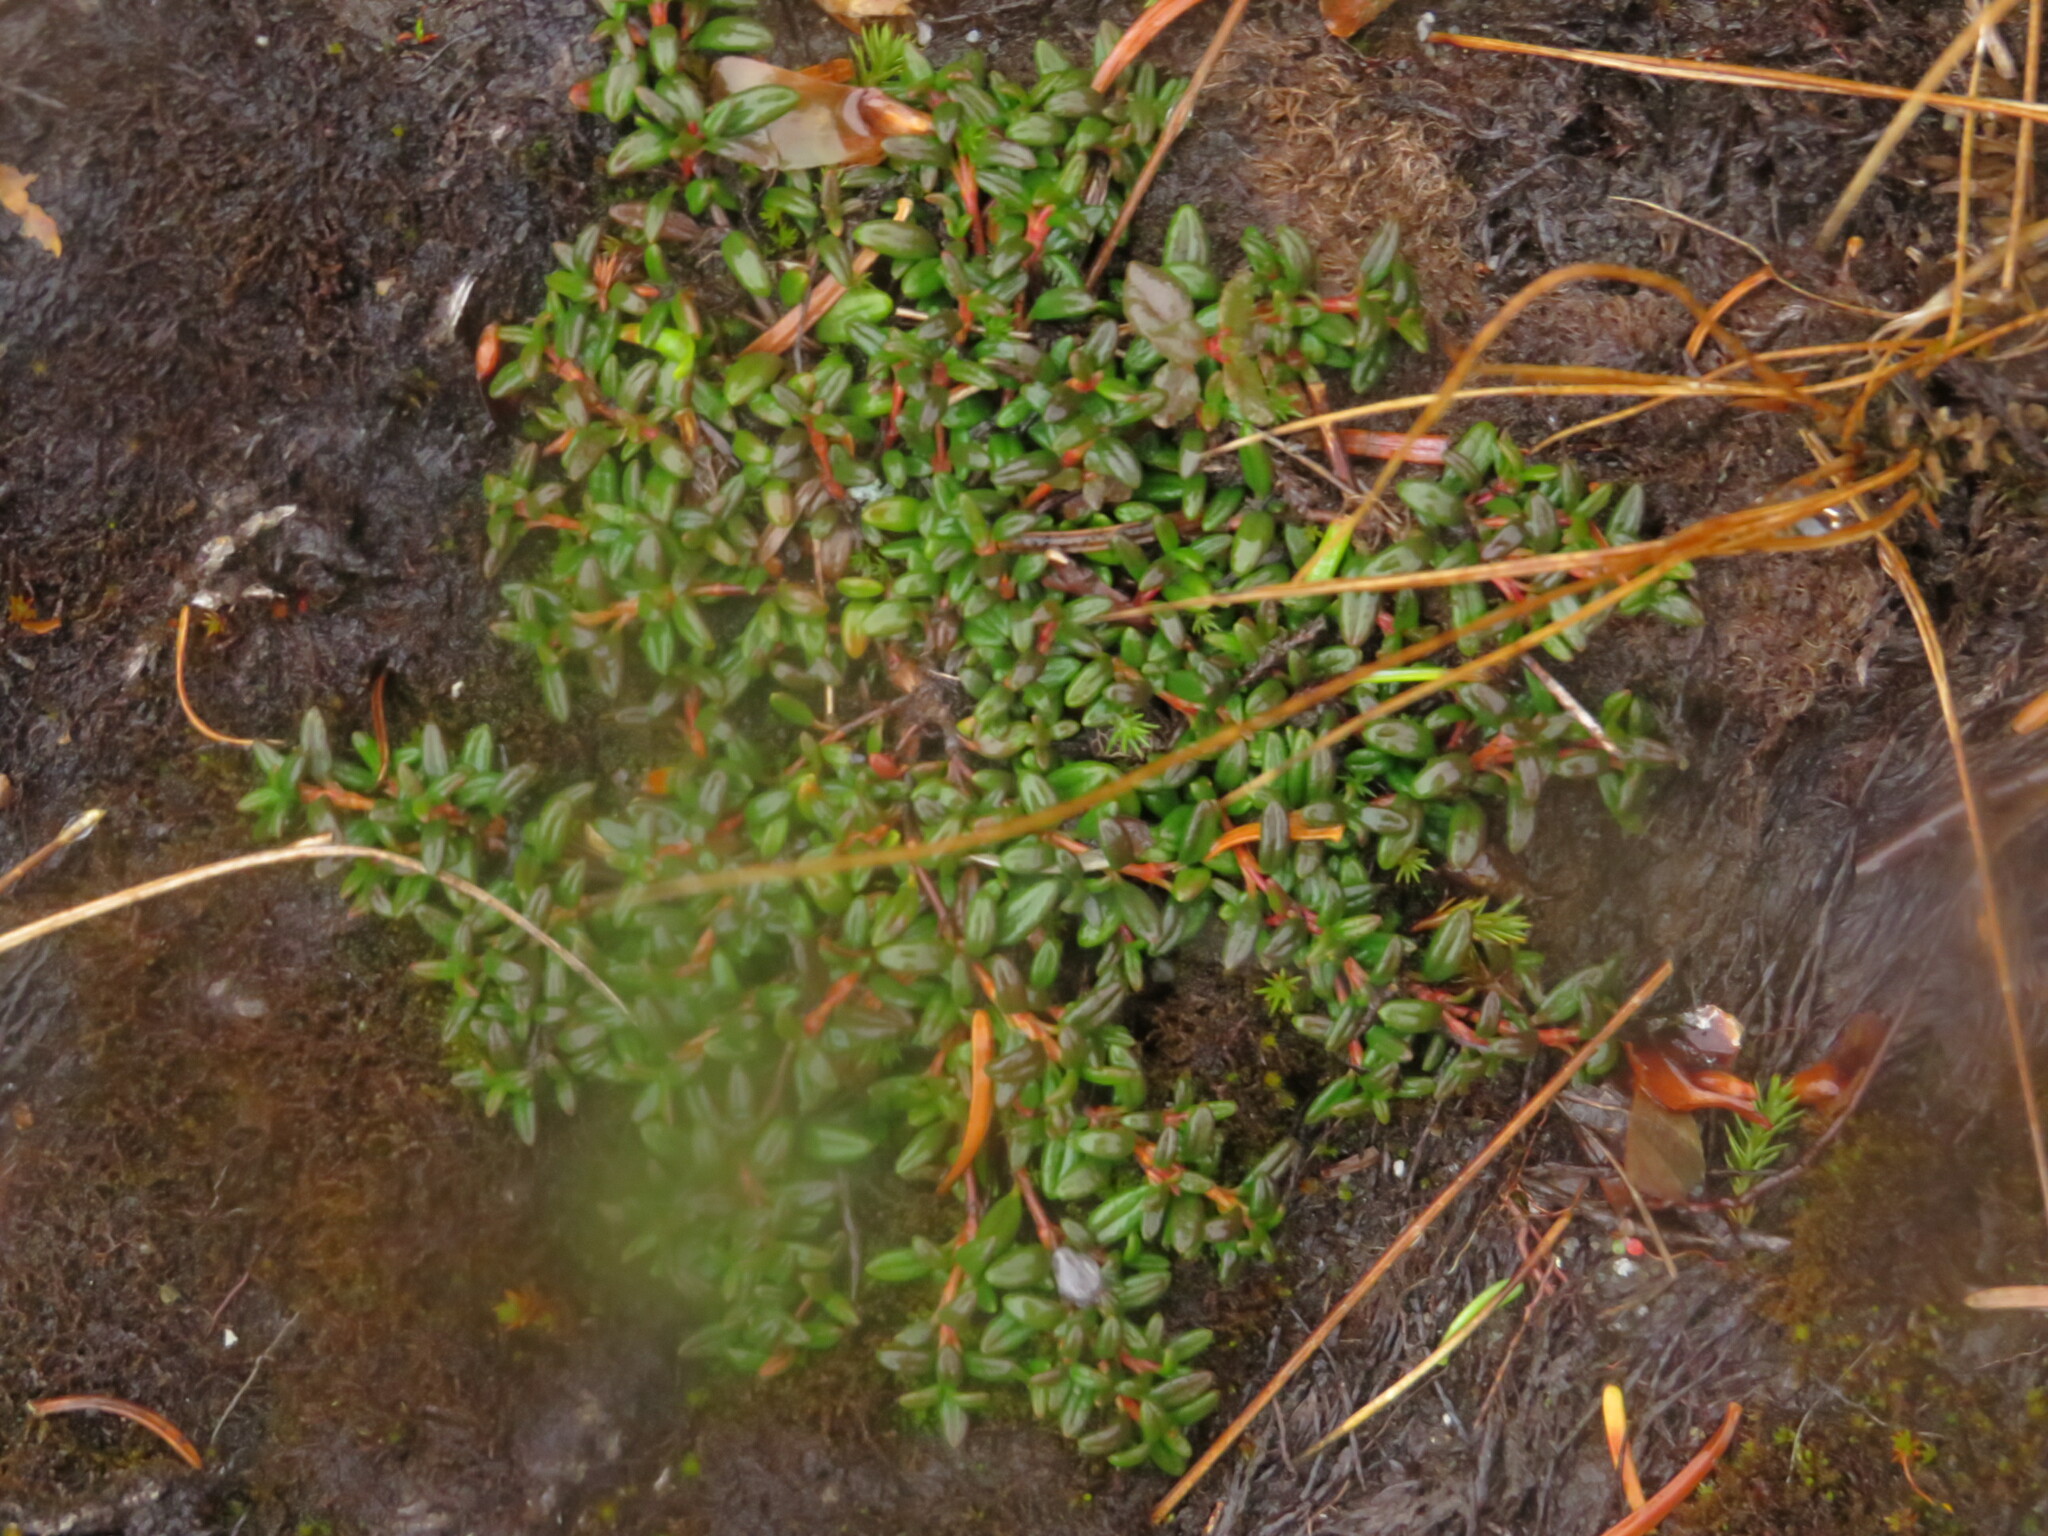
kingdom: Plantae
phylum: Tracheophyta
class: Magnoliopsida
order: Ericales
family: Ericaceae
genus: Kalmia
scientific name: Kalmia procumbens
